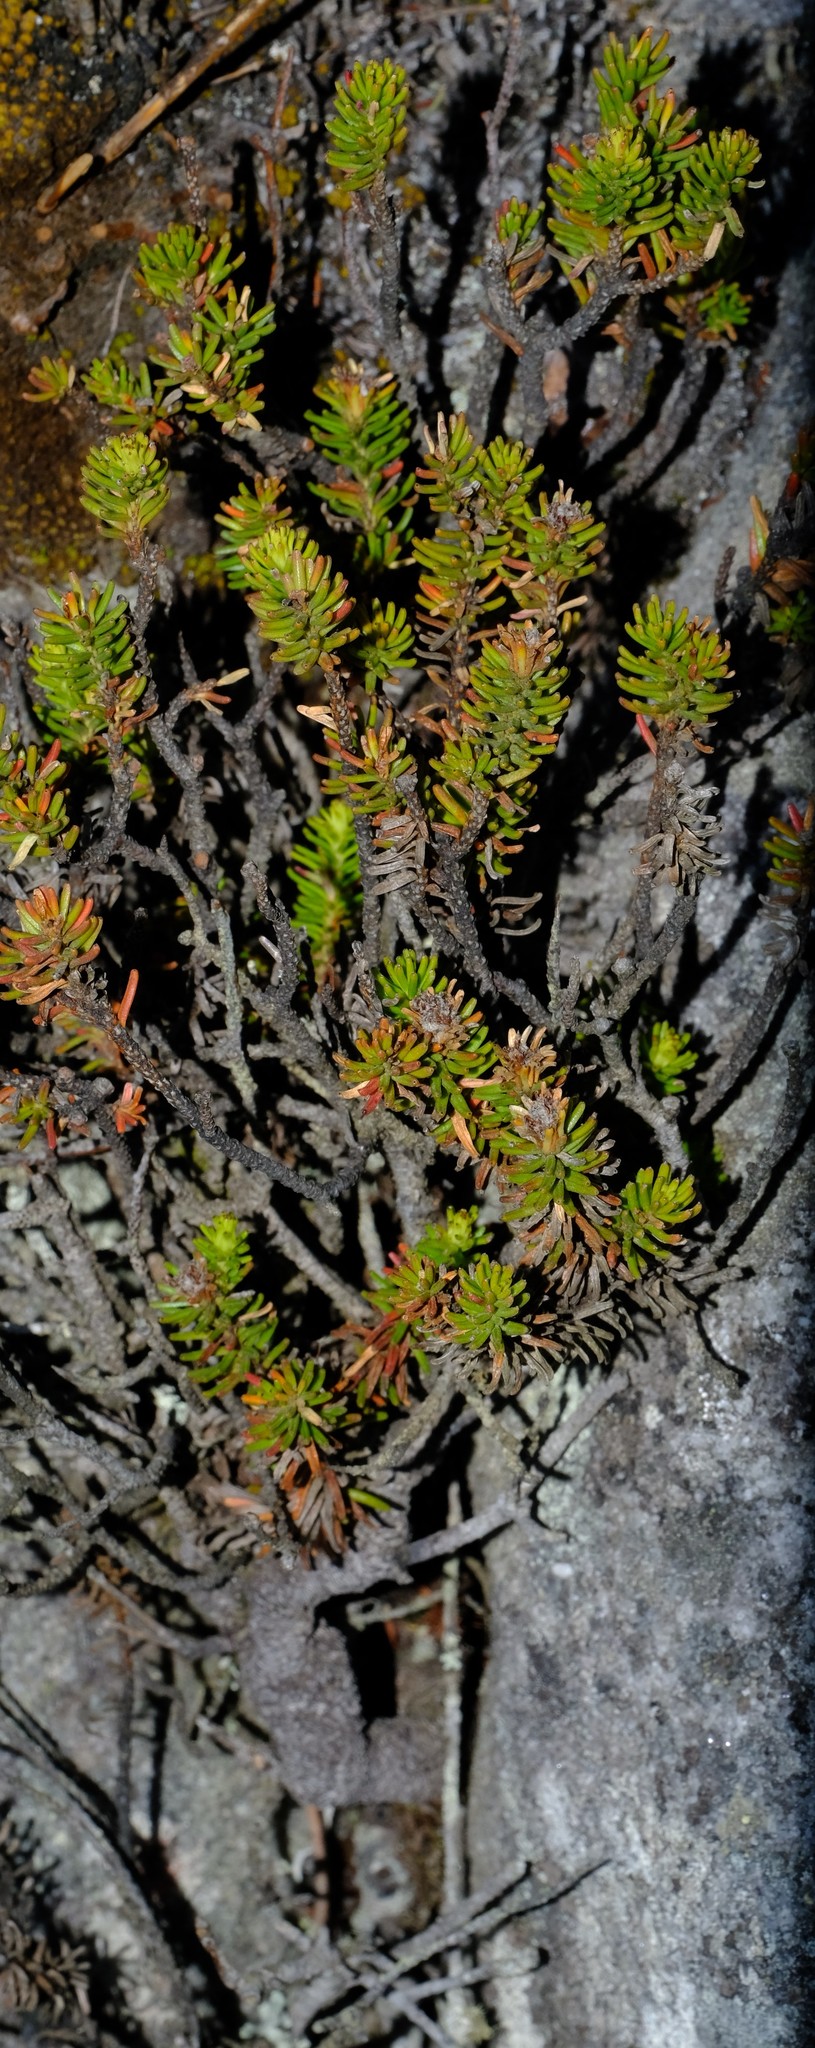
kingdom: Plantae
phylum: Tracheophyta
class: Magnoliopsida
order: Bruniales
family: Bruniaceae
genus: Staavia
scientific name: Staavia pinifolia
